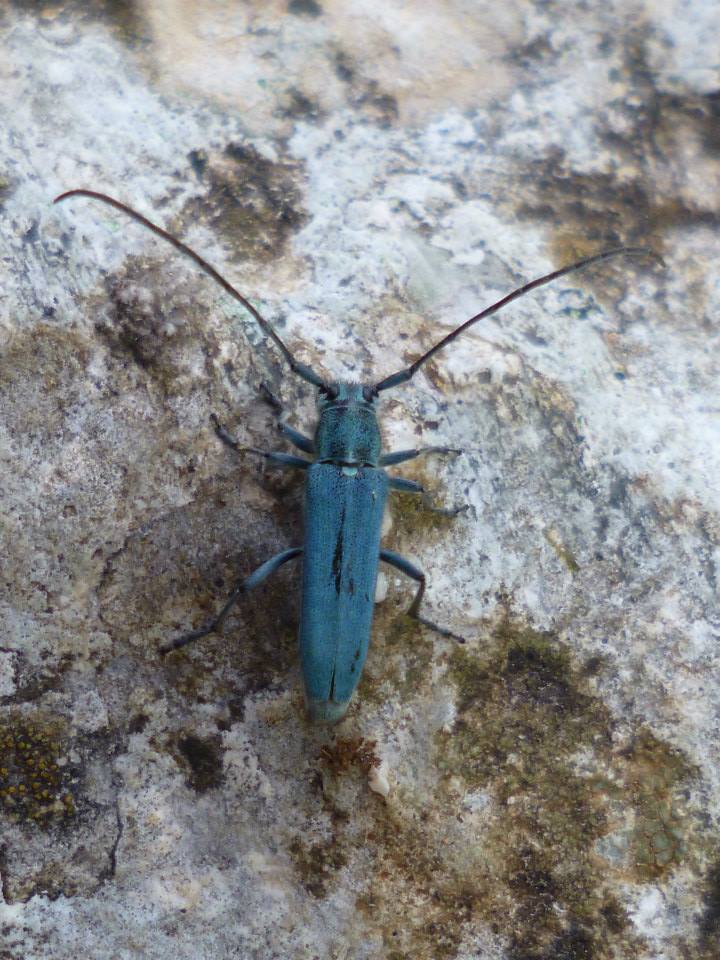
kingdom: Animalia
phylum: Arthropoda
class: Insecta
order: Coleoptera
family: Cerambycidae
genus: Phytoecia
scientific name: Phytoecia coerulescens
